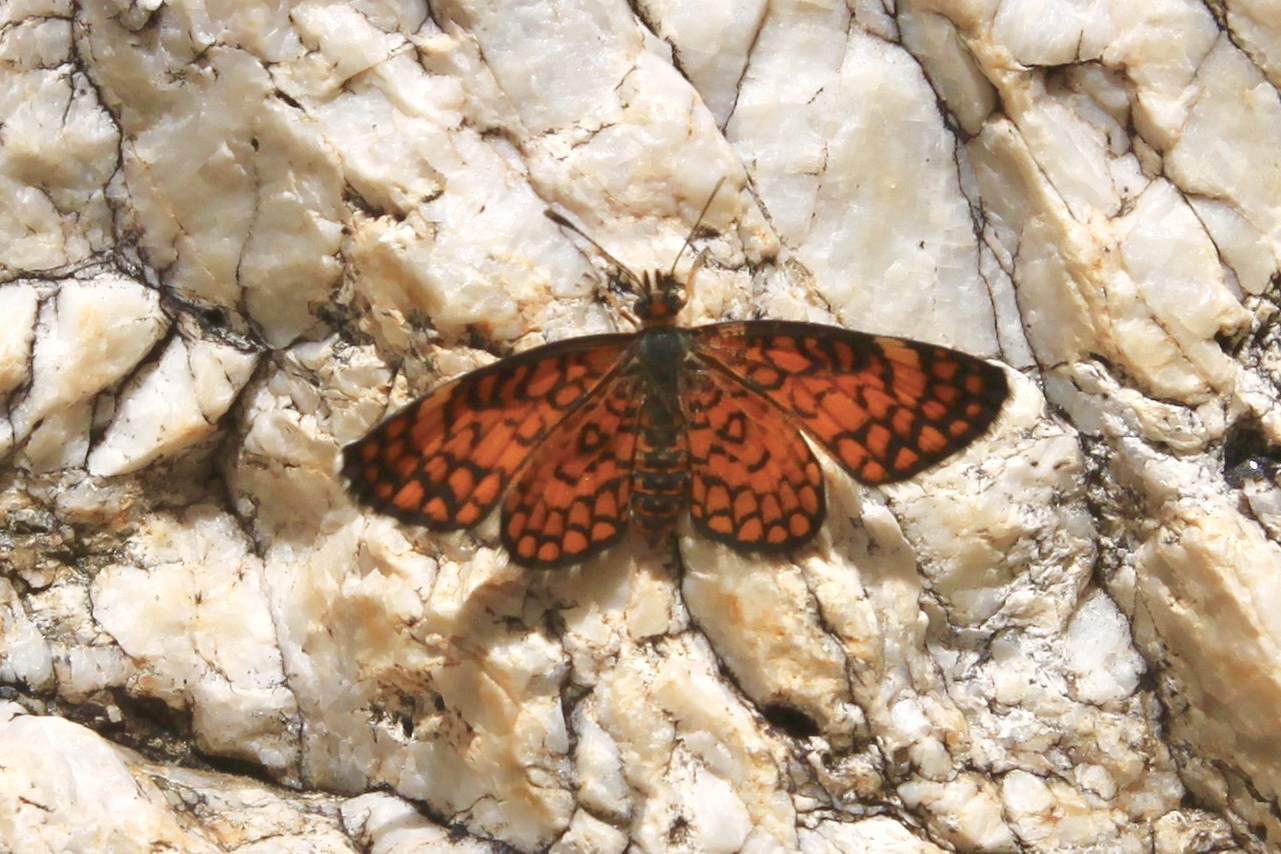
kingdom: Animalia
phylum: Arthropoda
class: Insecta
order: Lepidoptera
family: Nymphalidae
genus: Dymasia
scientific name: Dymasia dymas
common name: Tiny checkerspot
